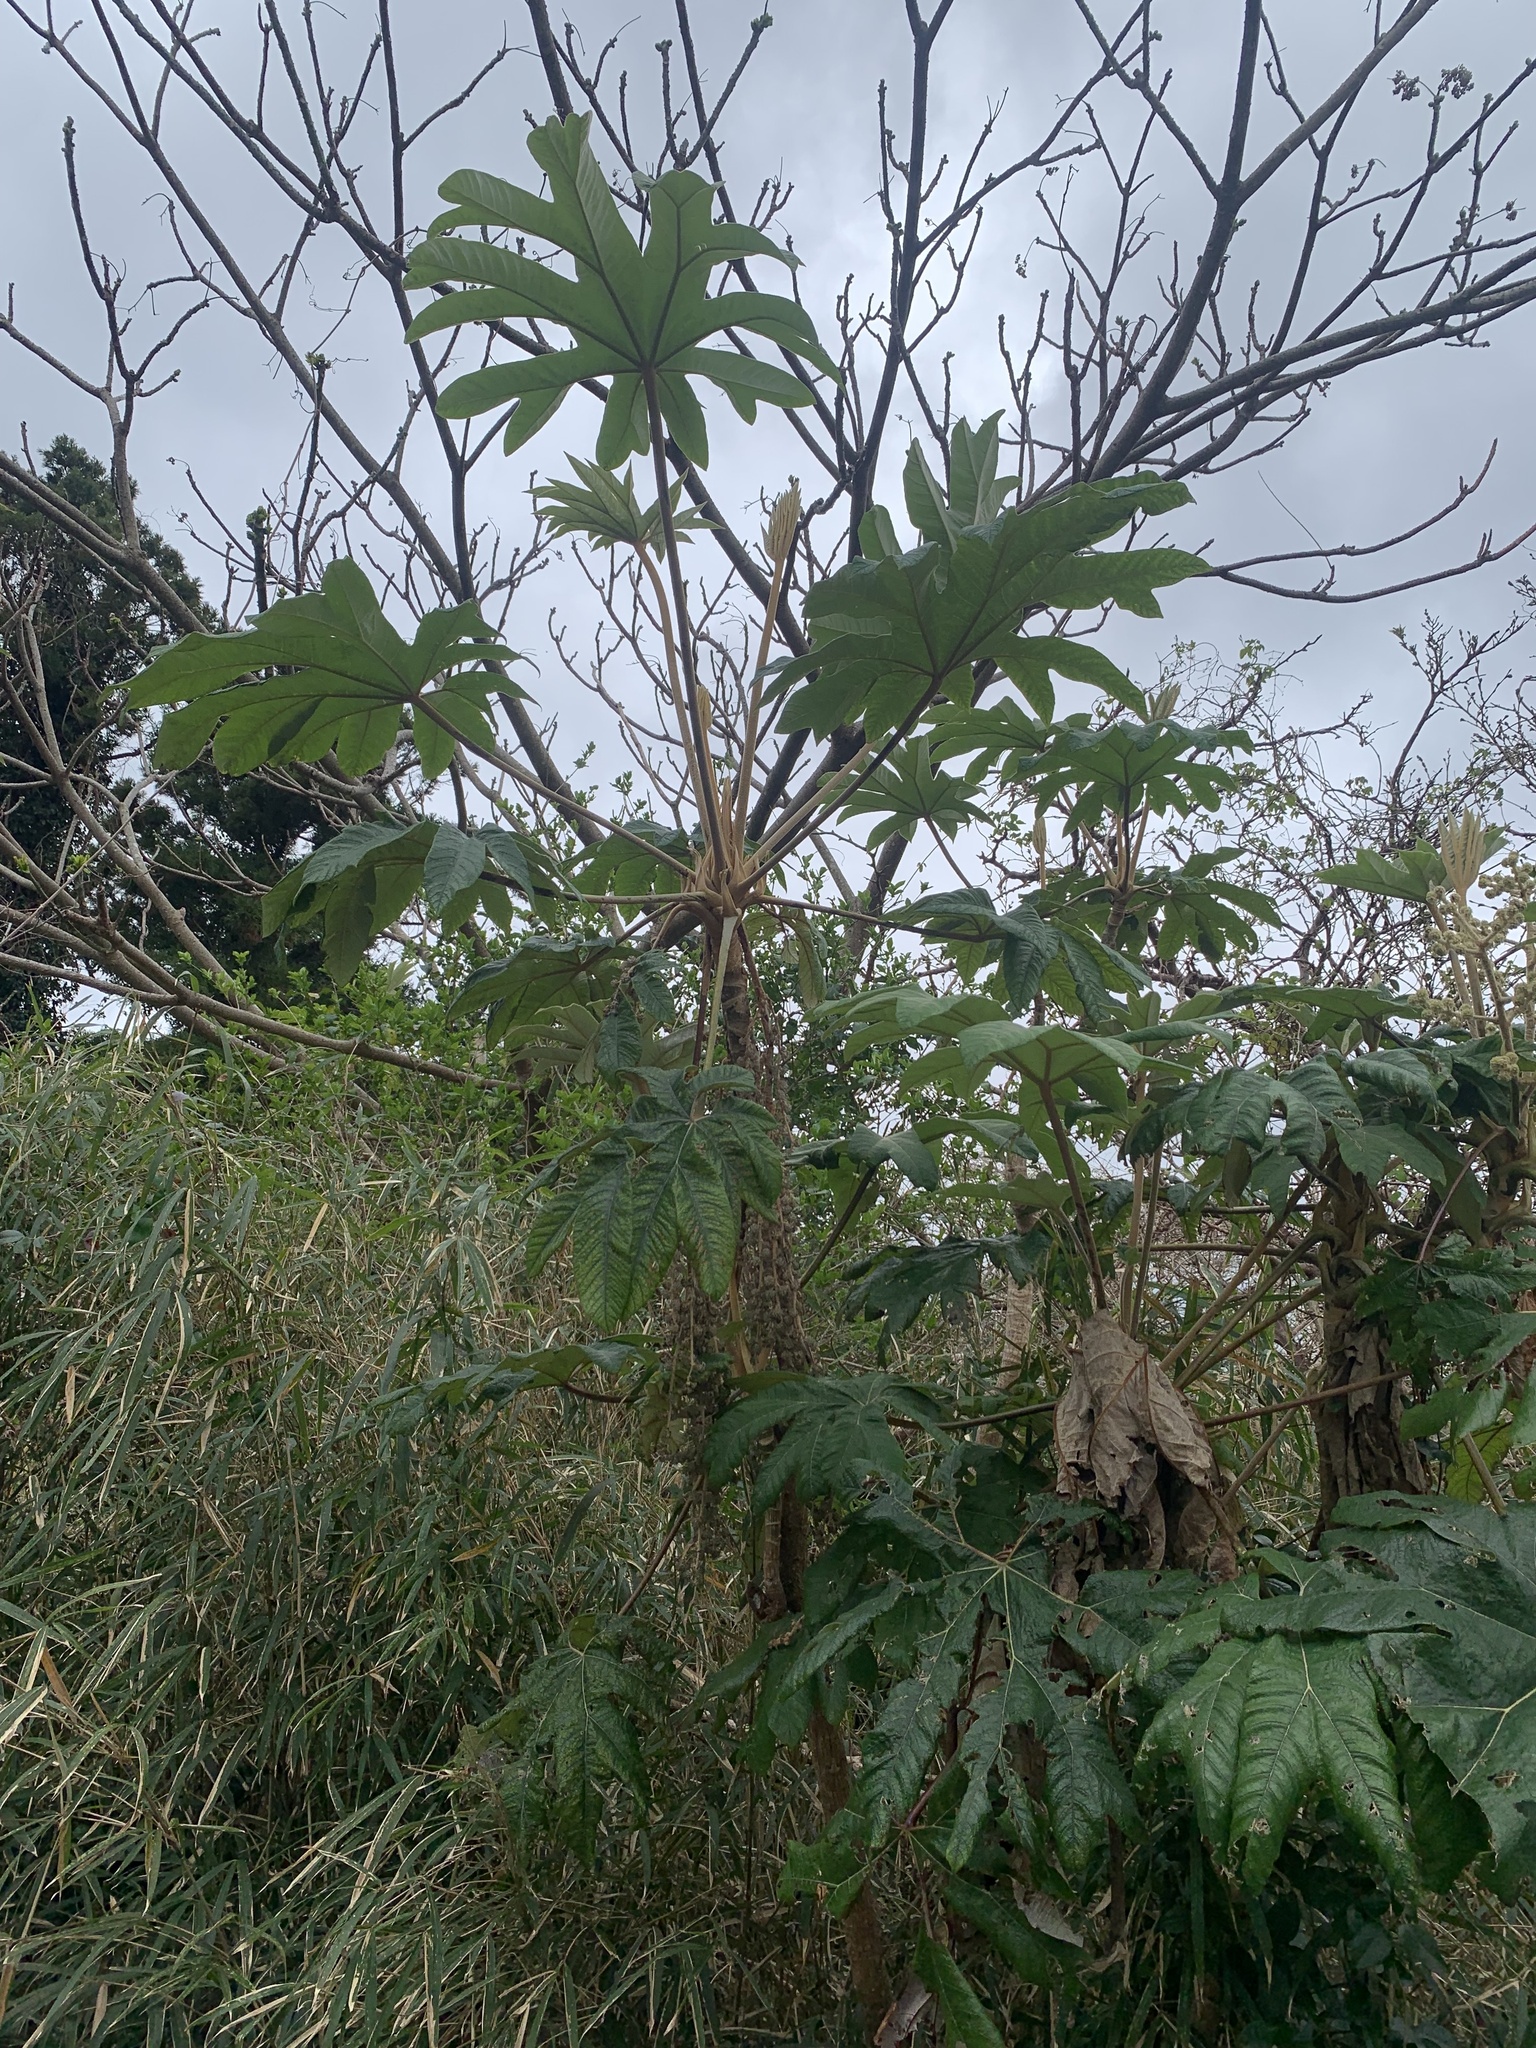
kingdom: Plantae
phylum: Tracheophyta
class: Magnoliopsida
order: Apiales
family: Araliaceae
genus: Tetrapanax
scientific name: Tetrapanax papyrifer
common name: Rice-paper plant
